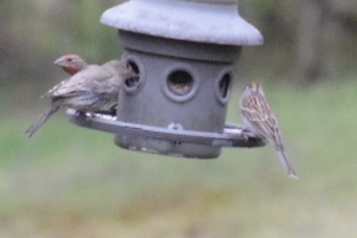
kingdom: Animalia
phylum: Chordata
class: Aves
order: Passeriformes
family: Passerellidae
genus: Spizella
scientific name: Spizella passerina
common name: Chipping sparrow
